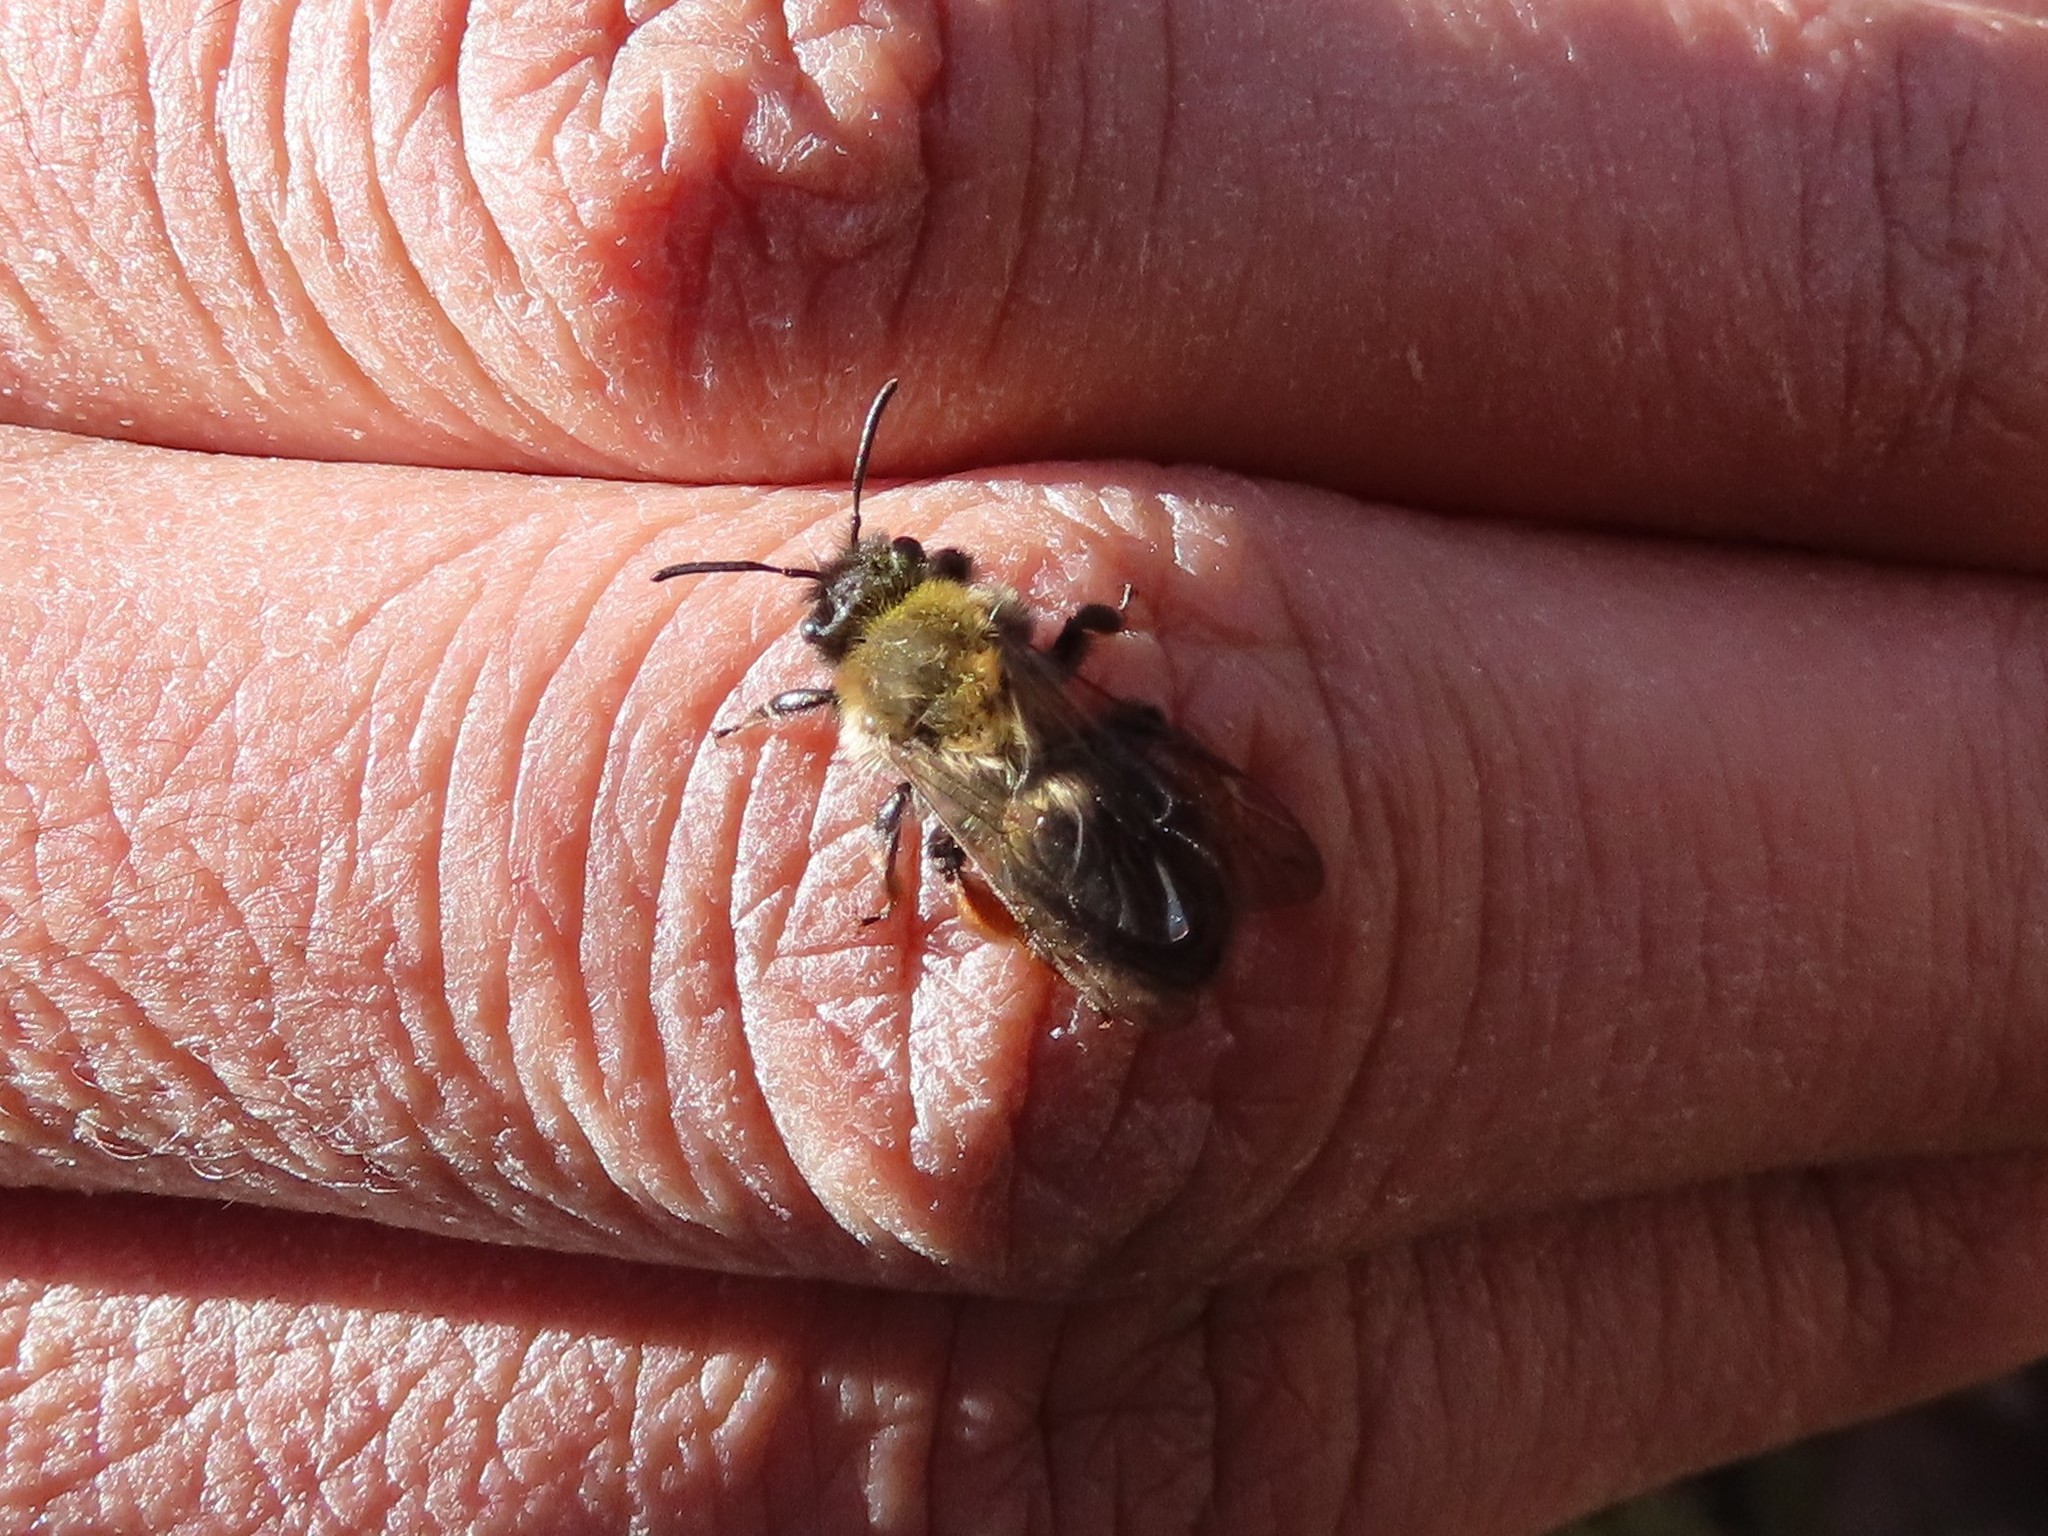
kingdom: Animalia
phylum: Arthropoda
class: Insecta
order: Hymenoptera
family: Andrenidae
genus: Andrena
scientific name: Andrena clarkella
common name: Clarke's mining bee
